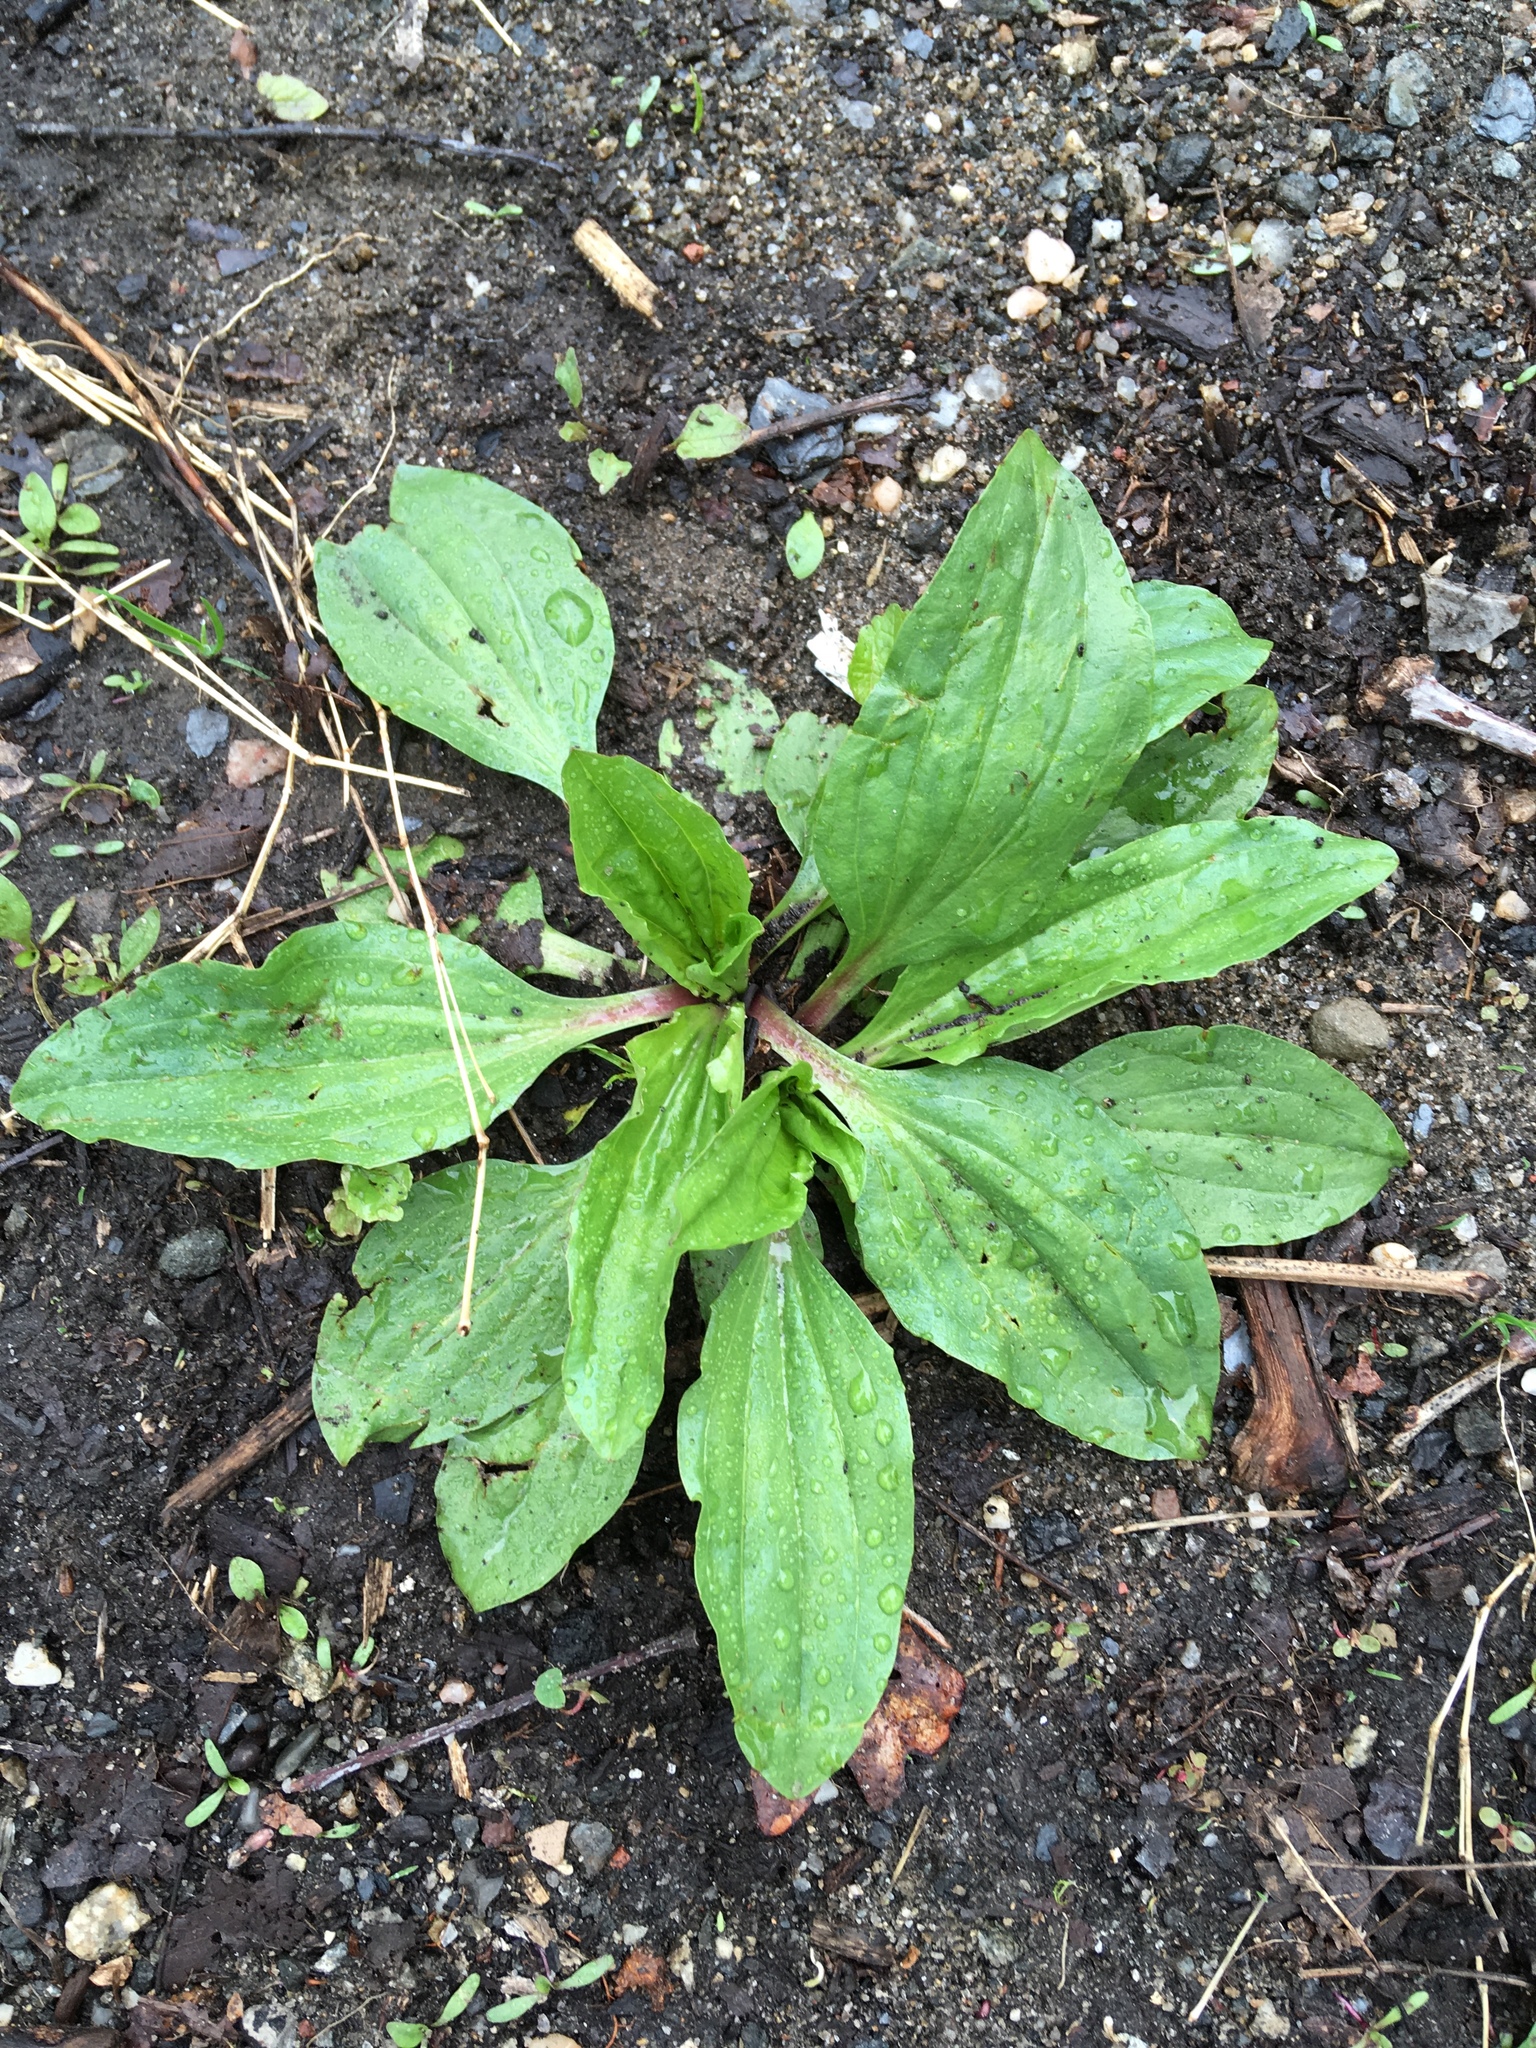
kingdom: Plantae
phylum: Tracheophyta
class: Magnoliopsida
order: Lamiales
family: Plantaginaceae
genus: Plantago
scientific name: Plantago rugelii
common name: American plantain
